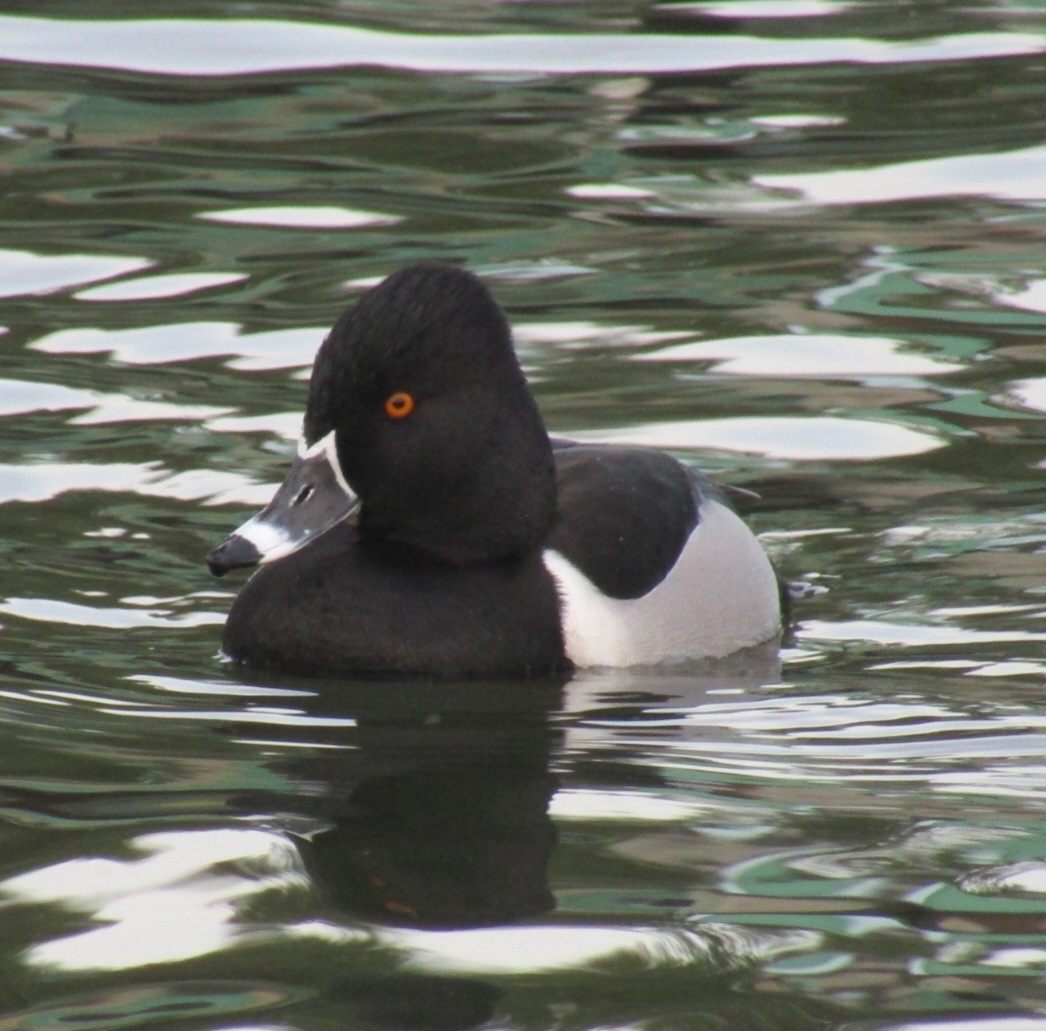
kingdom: Animalia
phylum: Chordata
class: Aves
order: Anseriformes
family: Anatidae
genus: Aythya
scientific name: Aythya collaris
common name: Ring-necked duck
